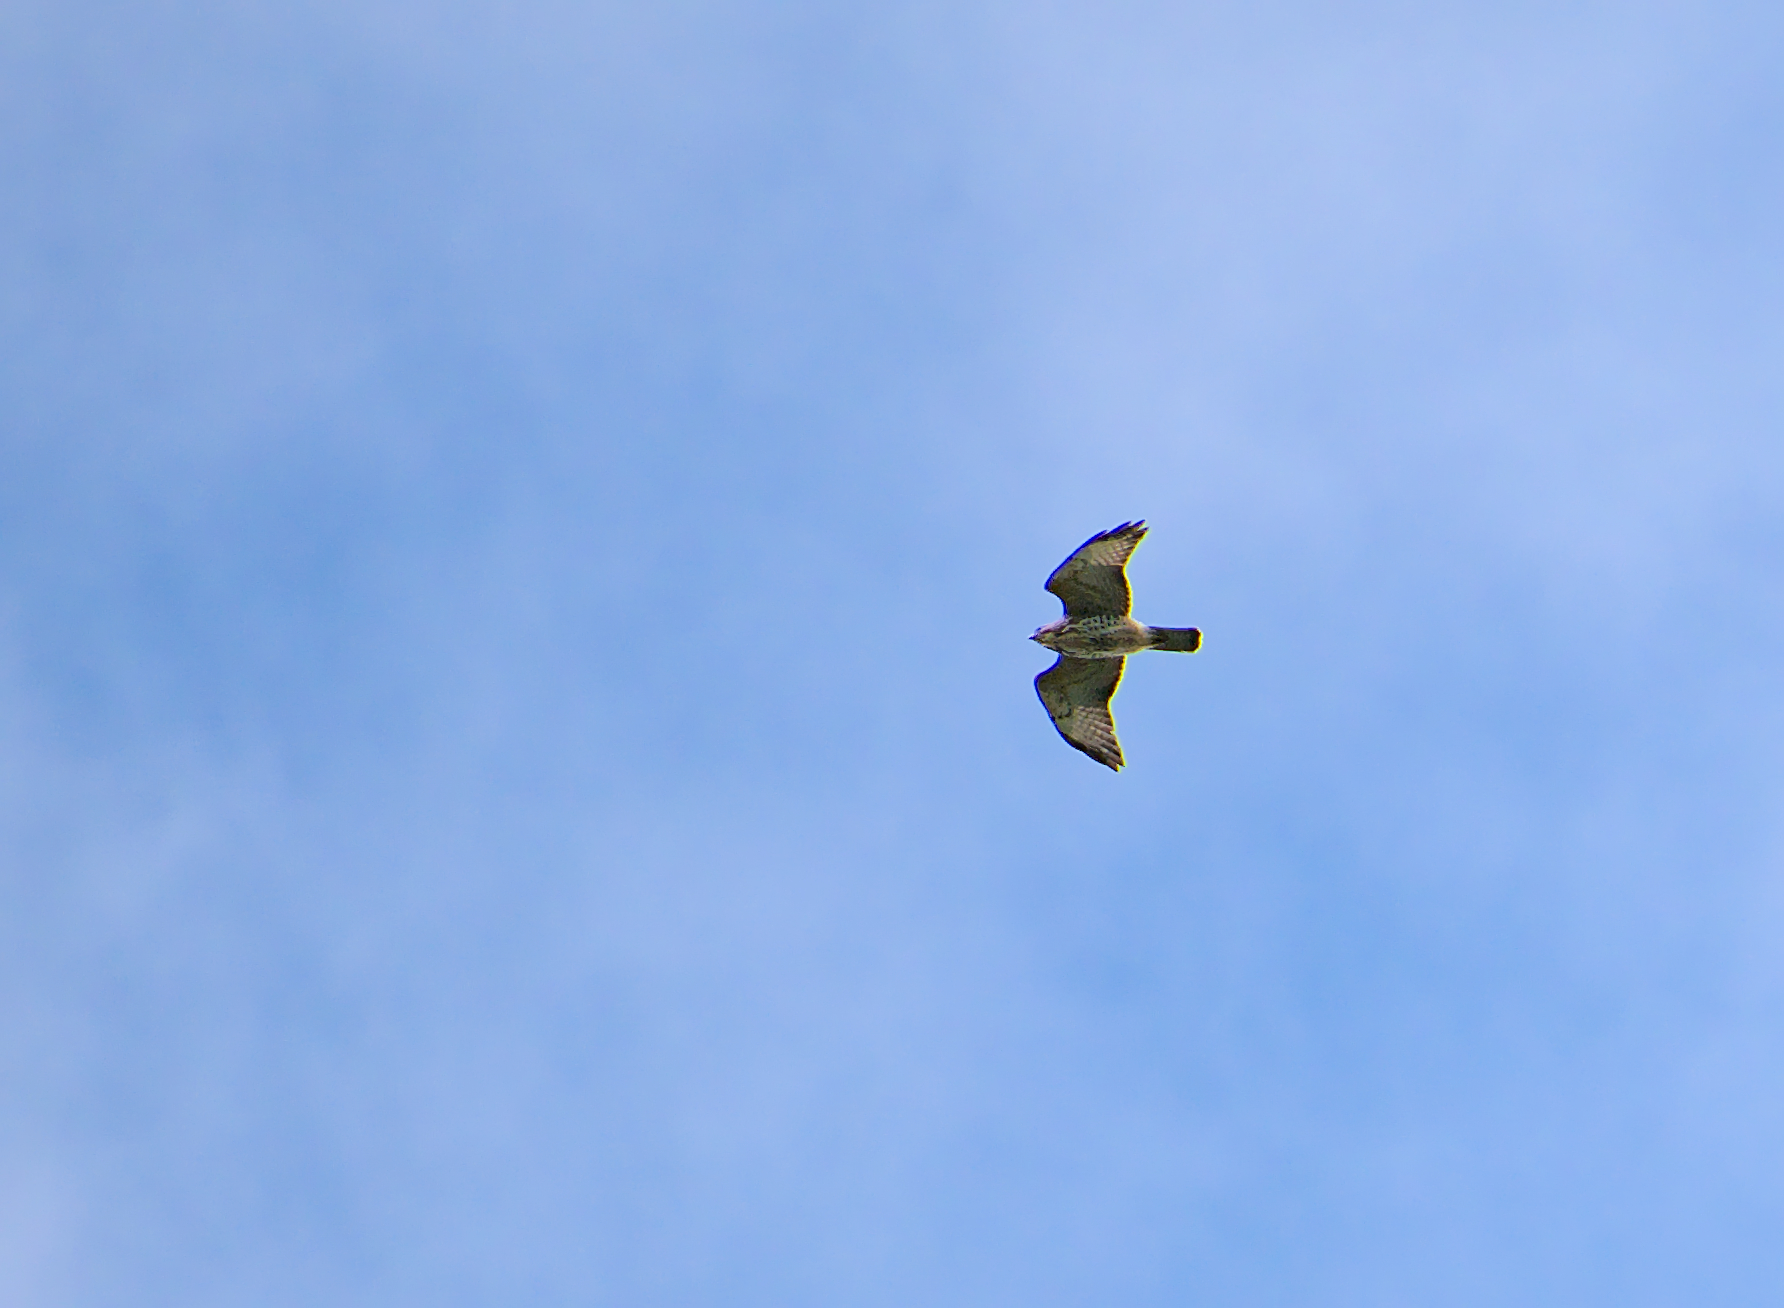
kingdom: Animalia
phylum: Chordata
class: Aves
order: Accipitriformes
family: Accipitridae
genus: Buteo
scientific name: Buteo platypterus
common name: Broad-winged hawk
